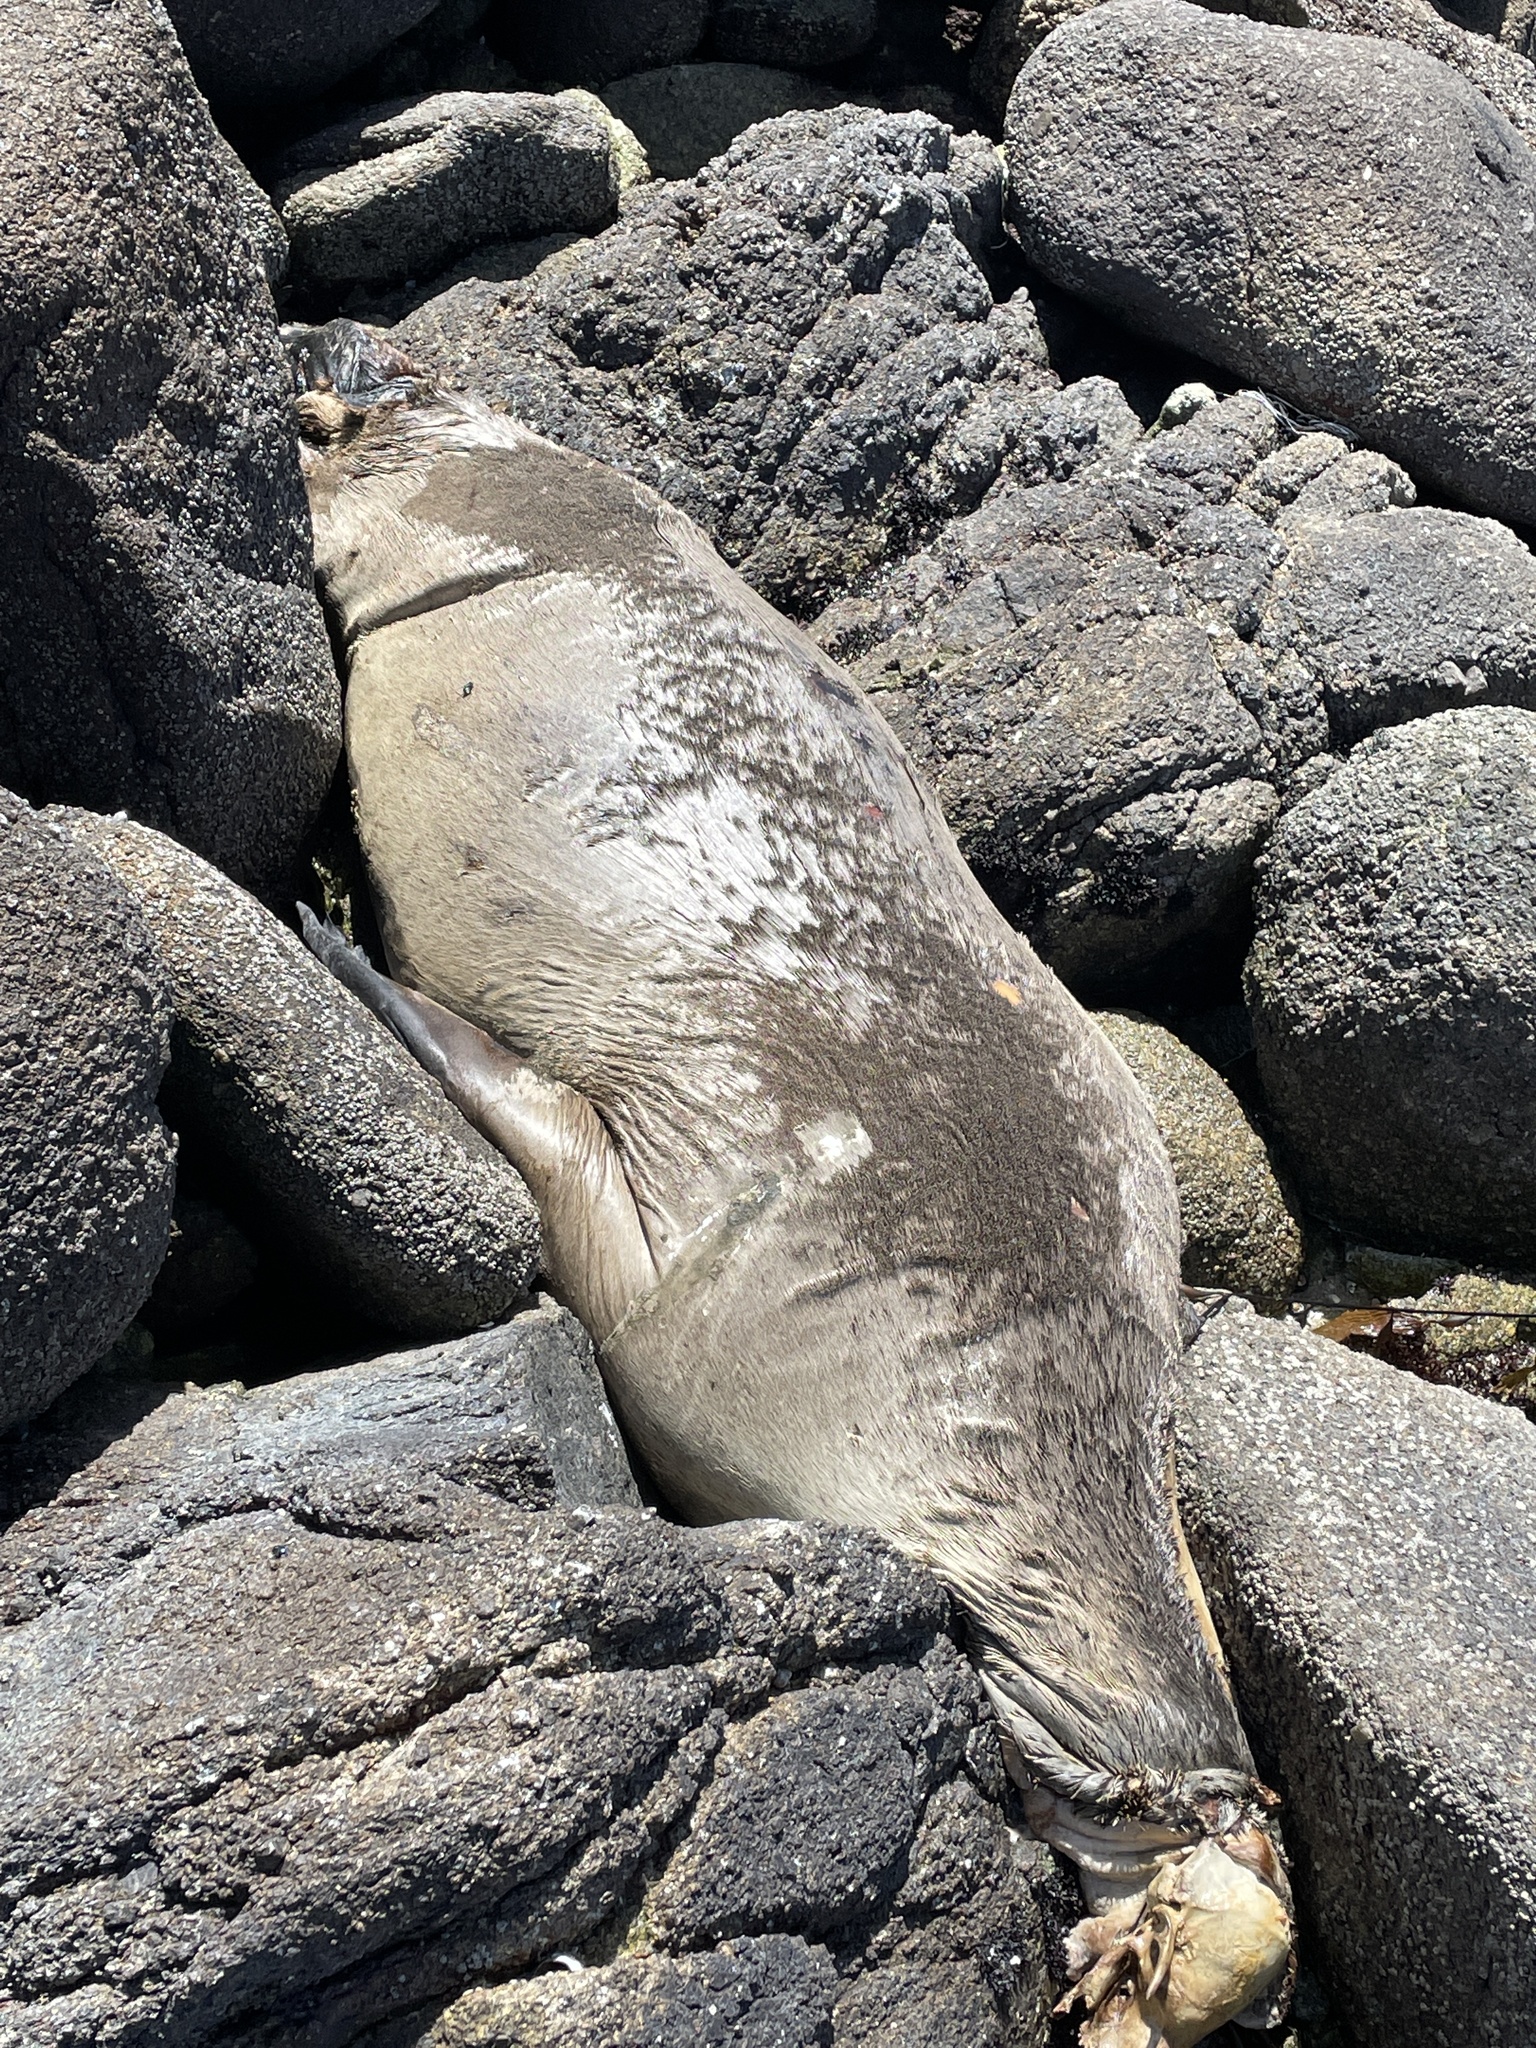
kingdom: Animalia
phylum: Chordata
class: Mammalia
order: Carnivora
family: Otariidae
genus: Zalophus
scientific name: Zalophus californianus
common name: California sea lion
